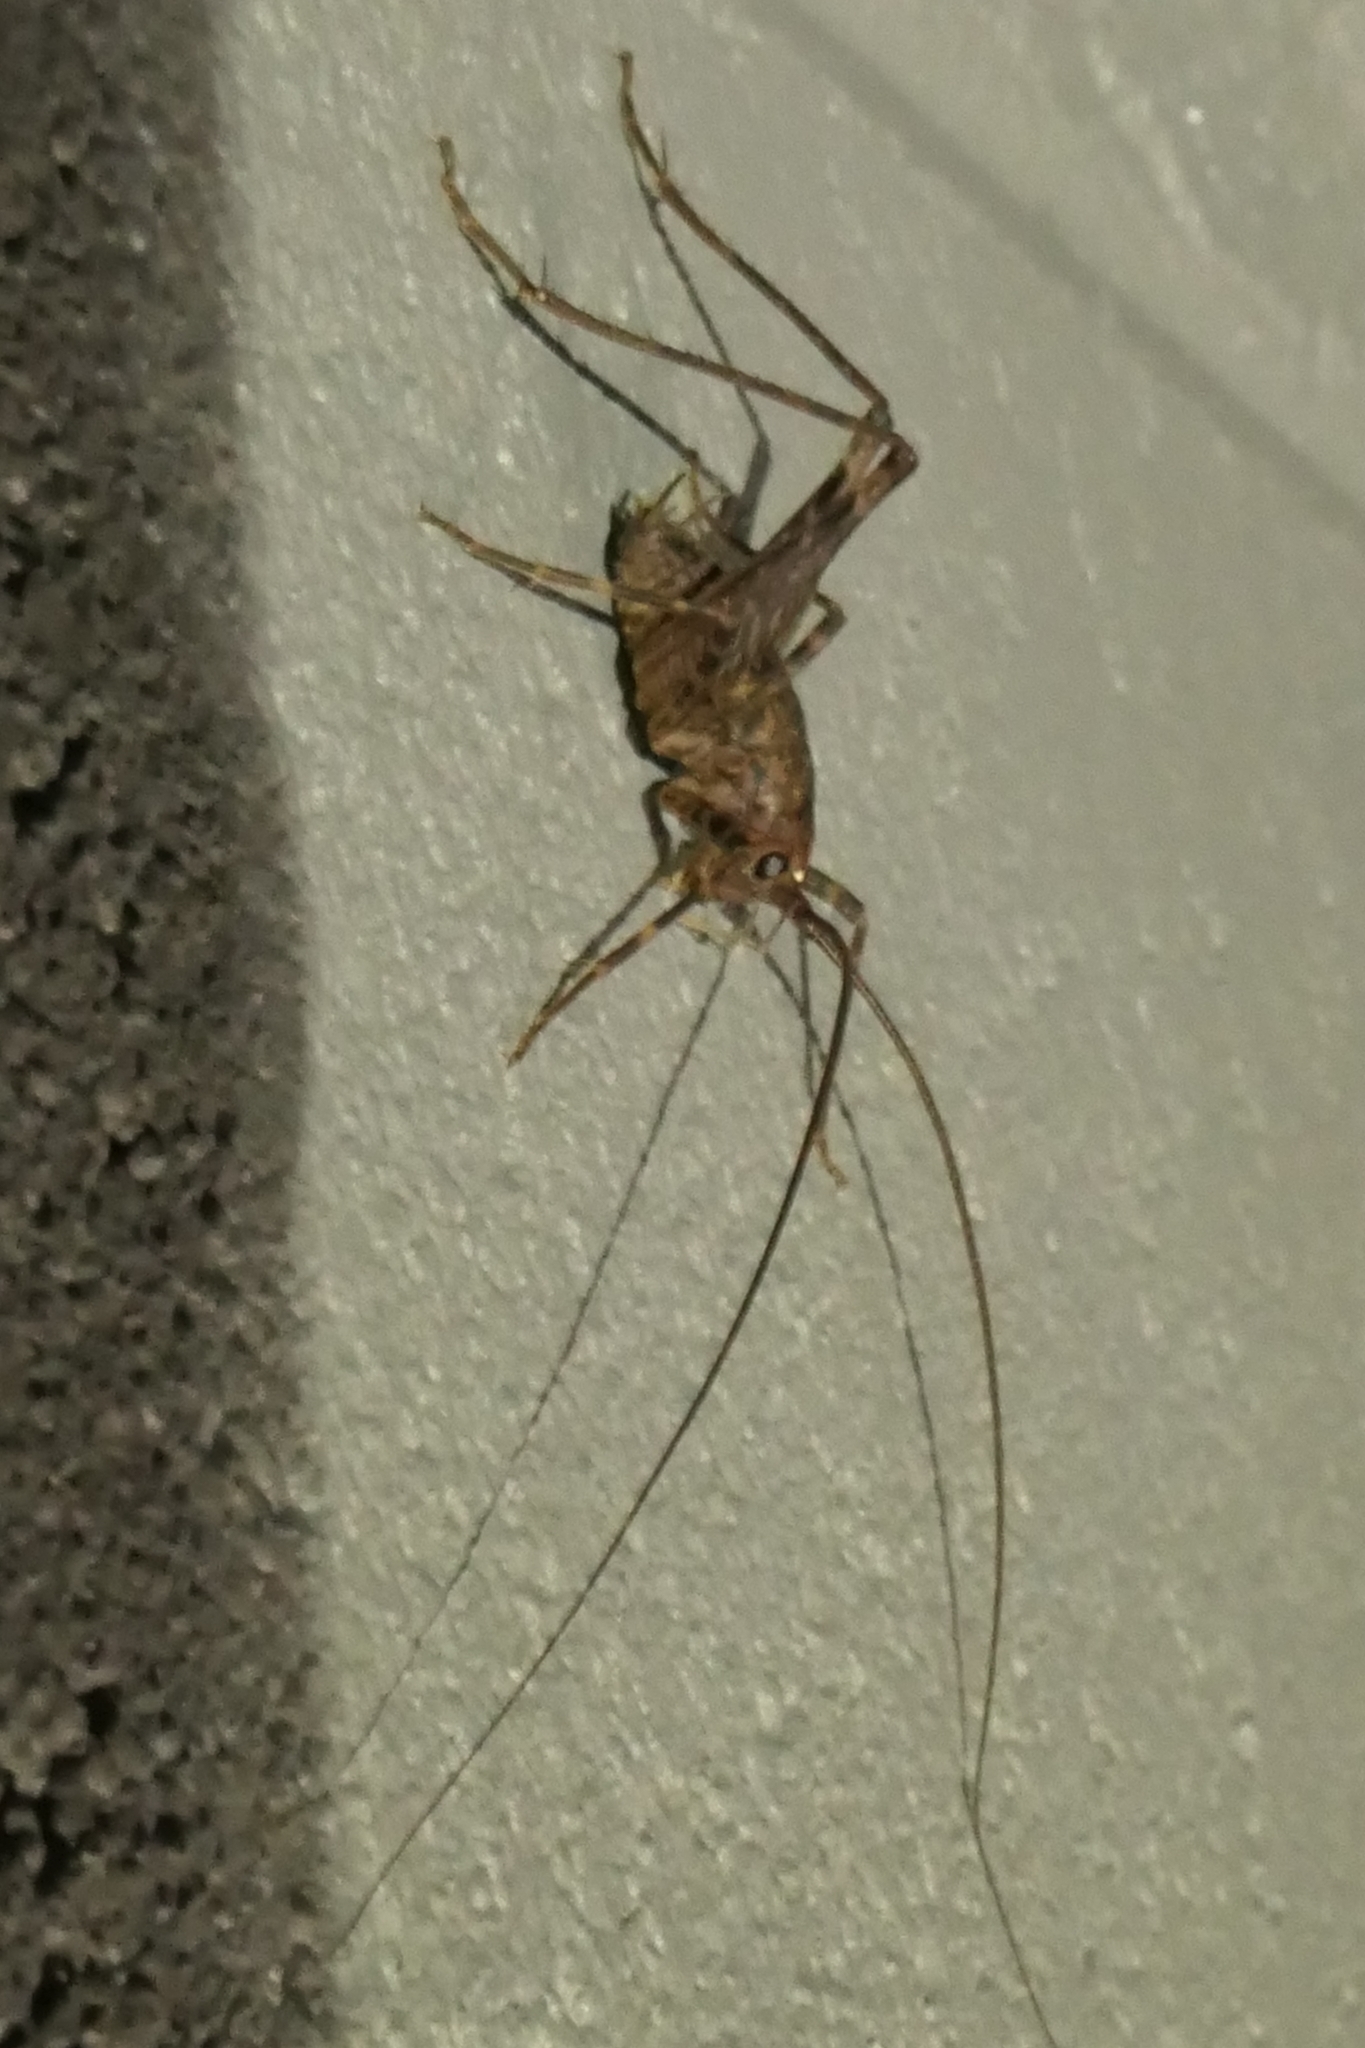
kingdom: Animalia
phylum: Arthropoda
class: Insecta
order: Orthoptera
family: Rhaphidophoridae
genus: Pleioplectron
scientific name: Pleioplectron simplex
